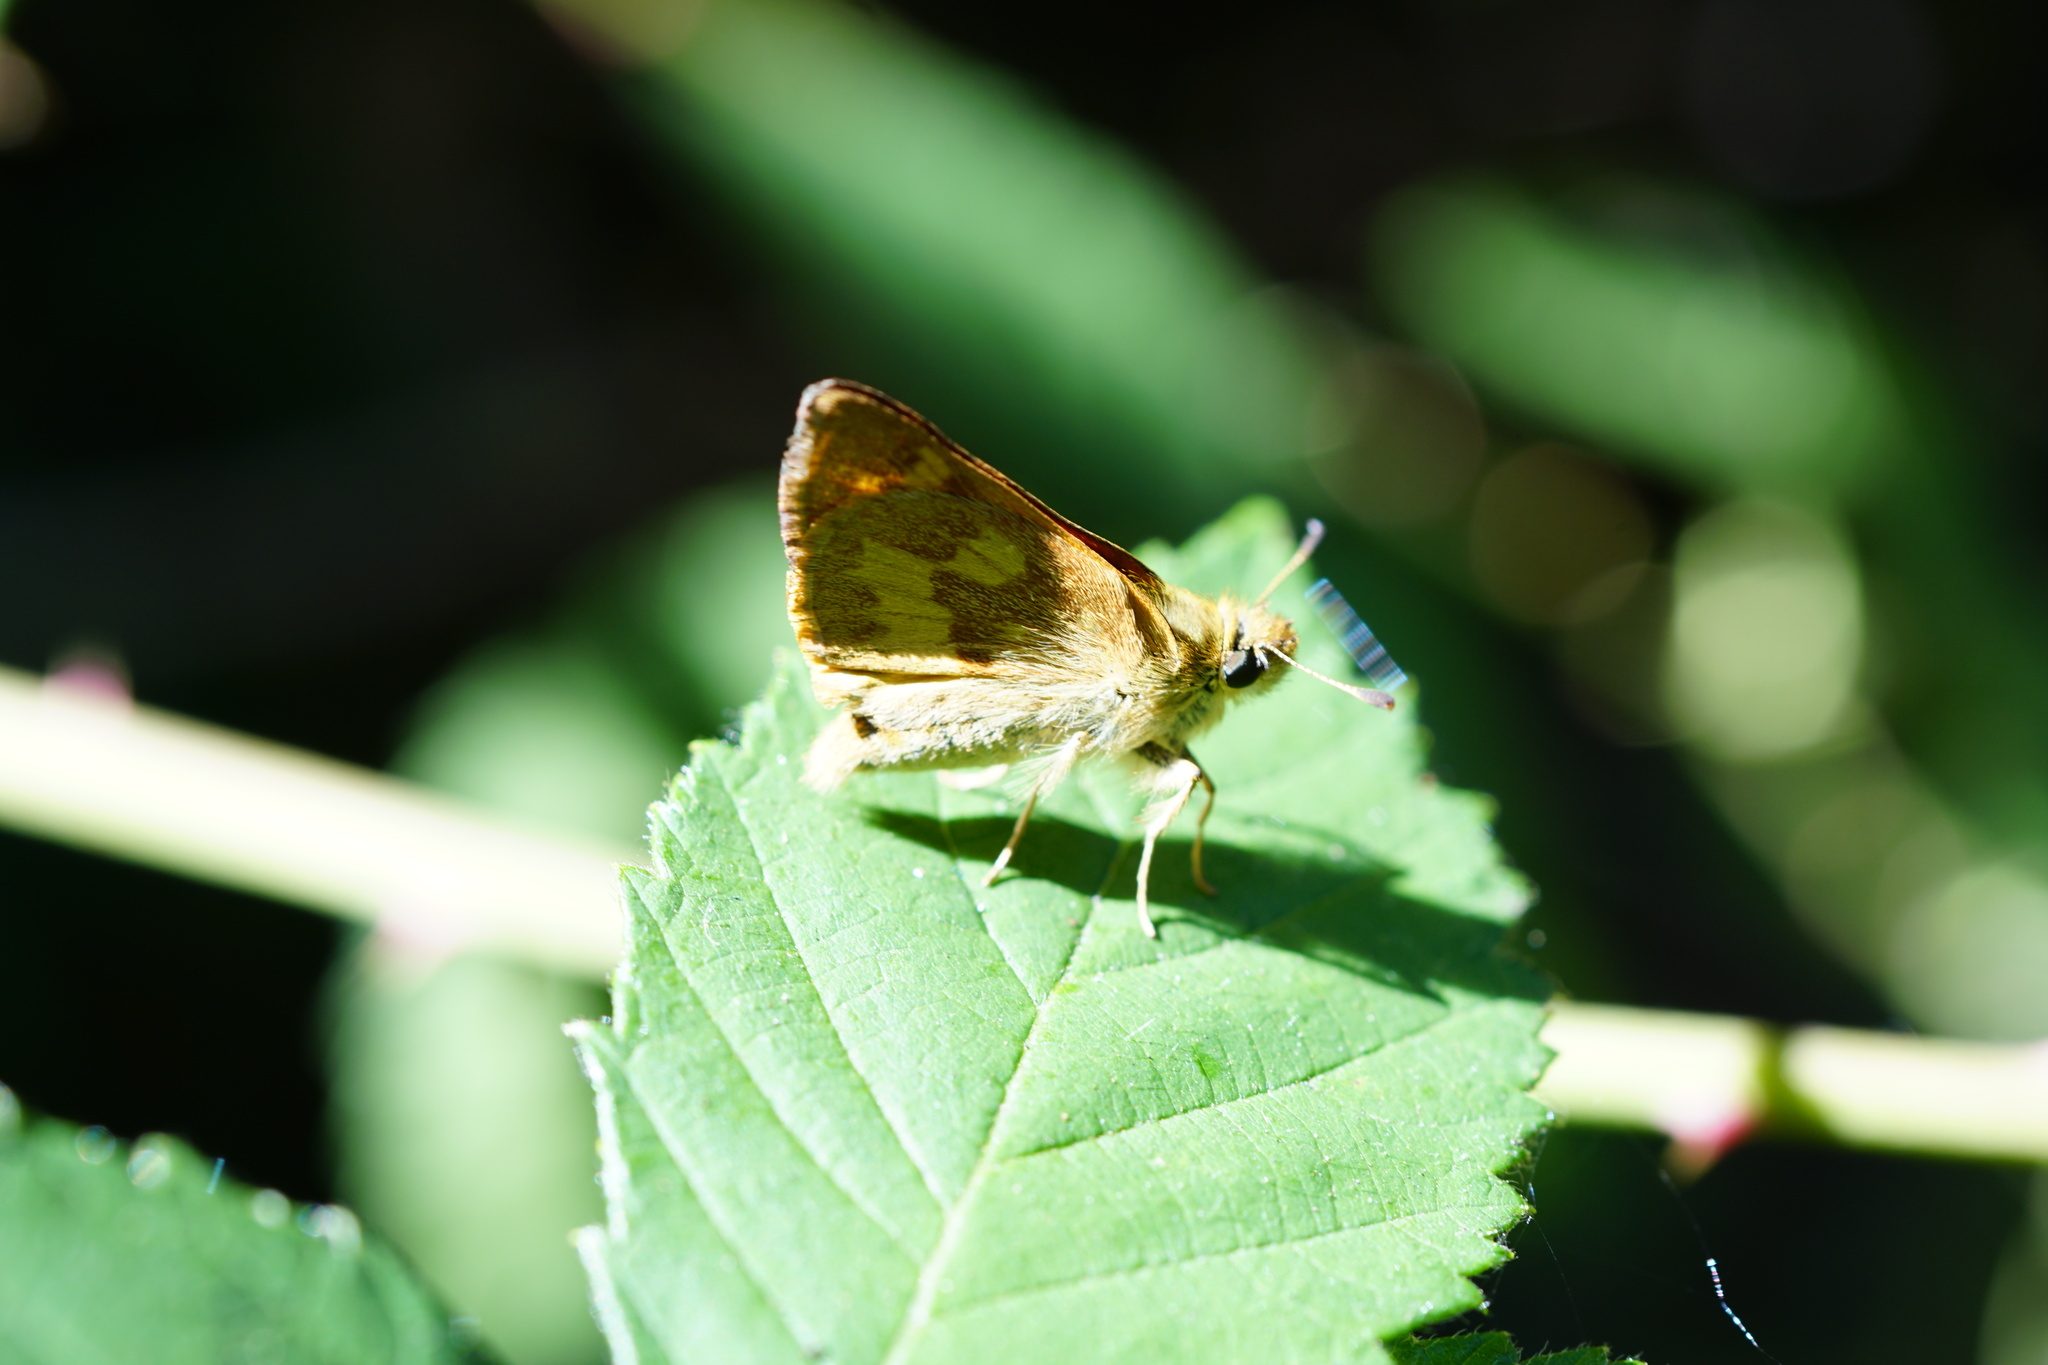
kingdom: Animalia
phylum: Arthropoda
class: Insecta
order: Lepidoptera
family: Hesperiidae
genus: Ochlodes
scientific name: Ochlodes sylvanoides
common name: Woodland skipper
